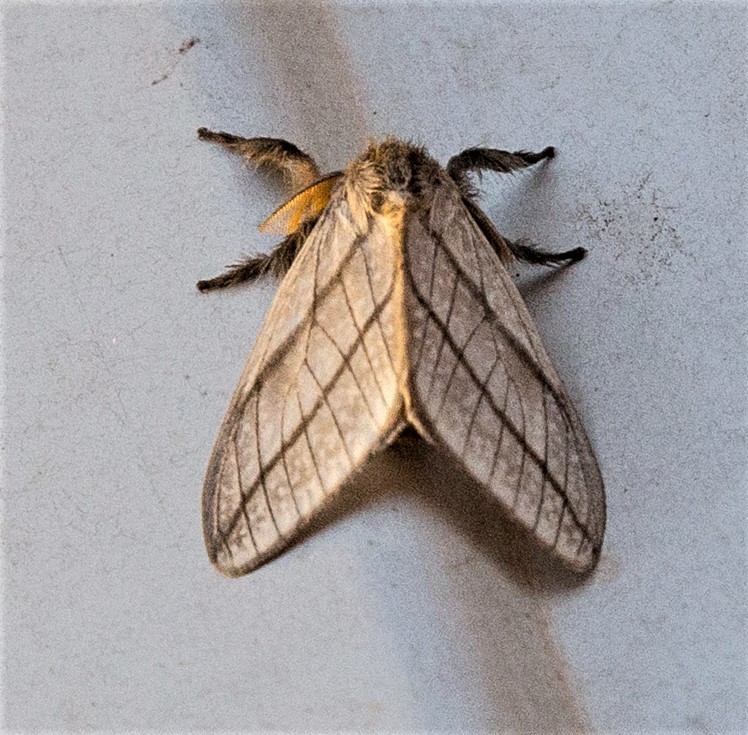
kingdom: Animalia
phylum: Arthropoda
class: Insecta
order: Lepidoptera
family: Erebidae
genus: Thagona
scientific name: Thagona bilinea
